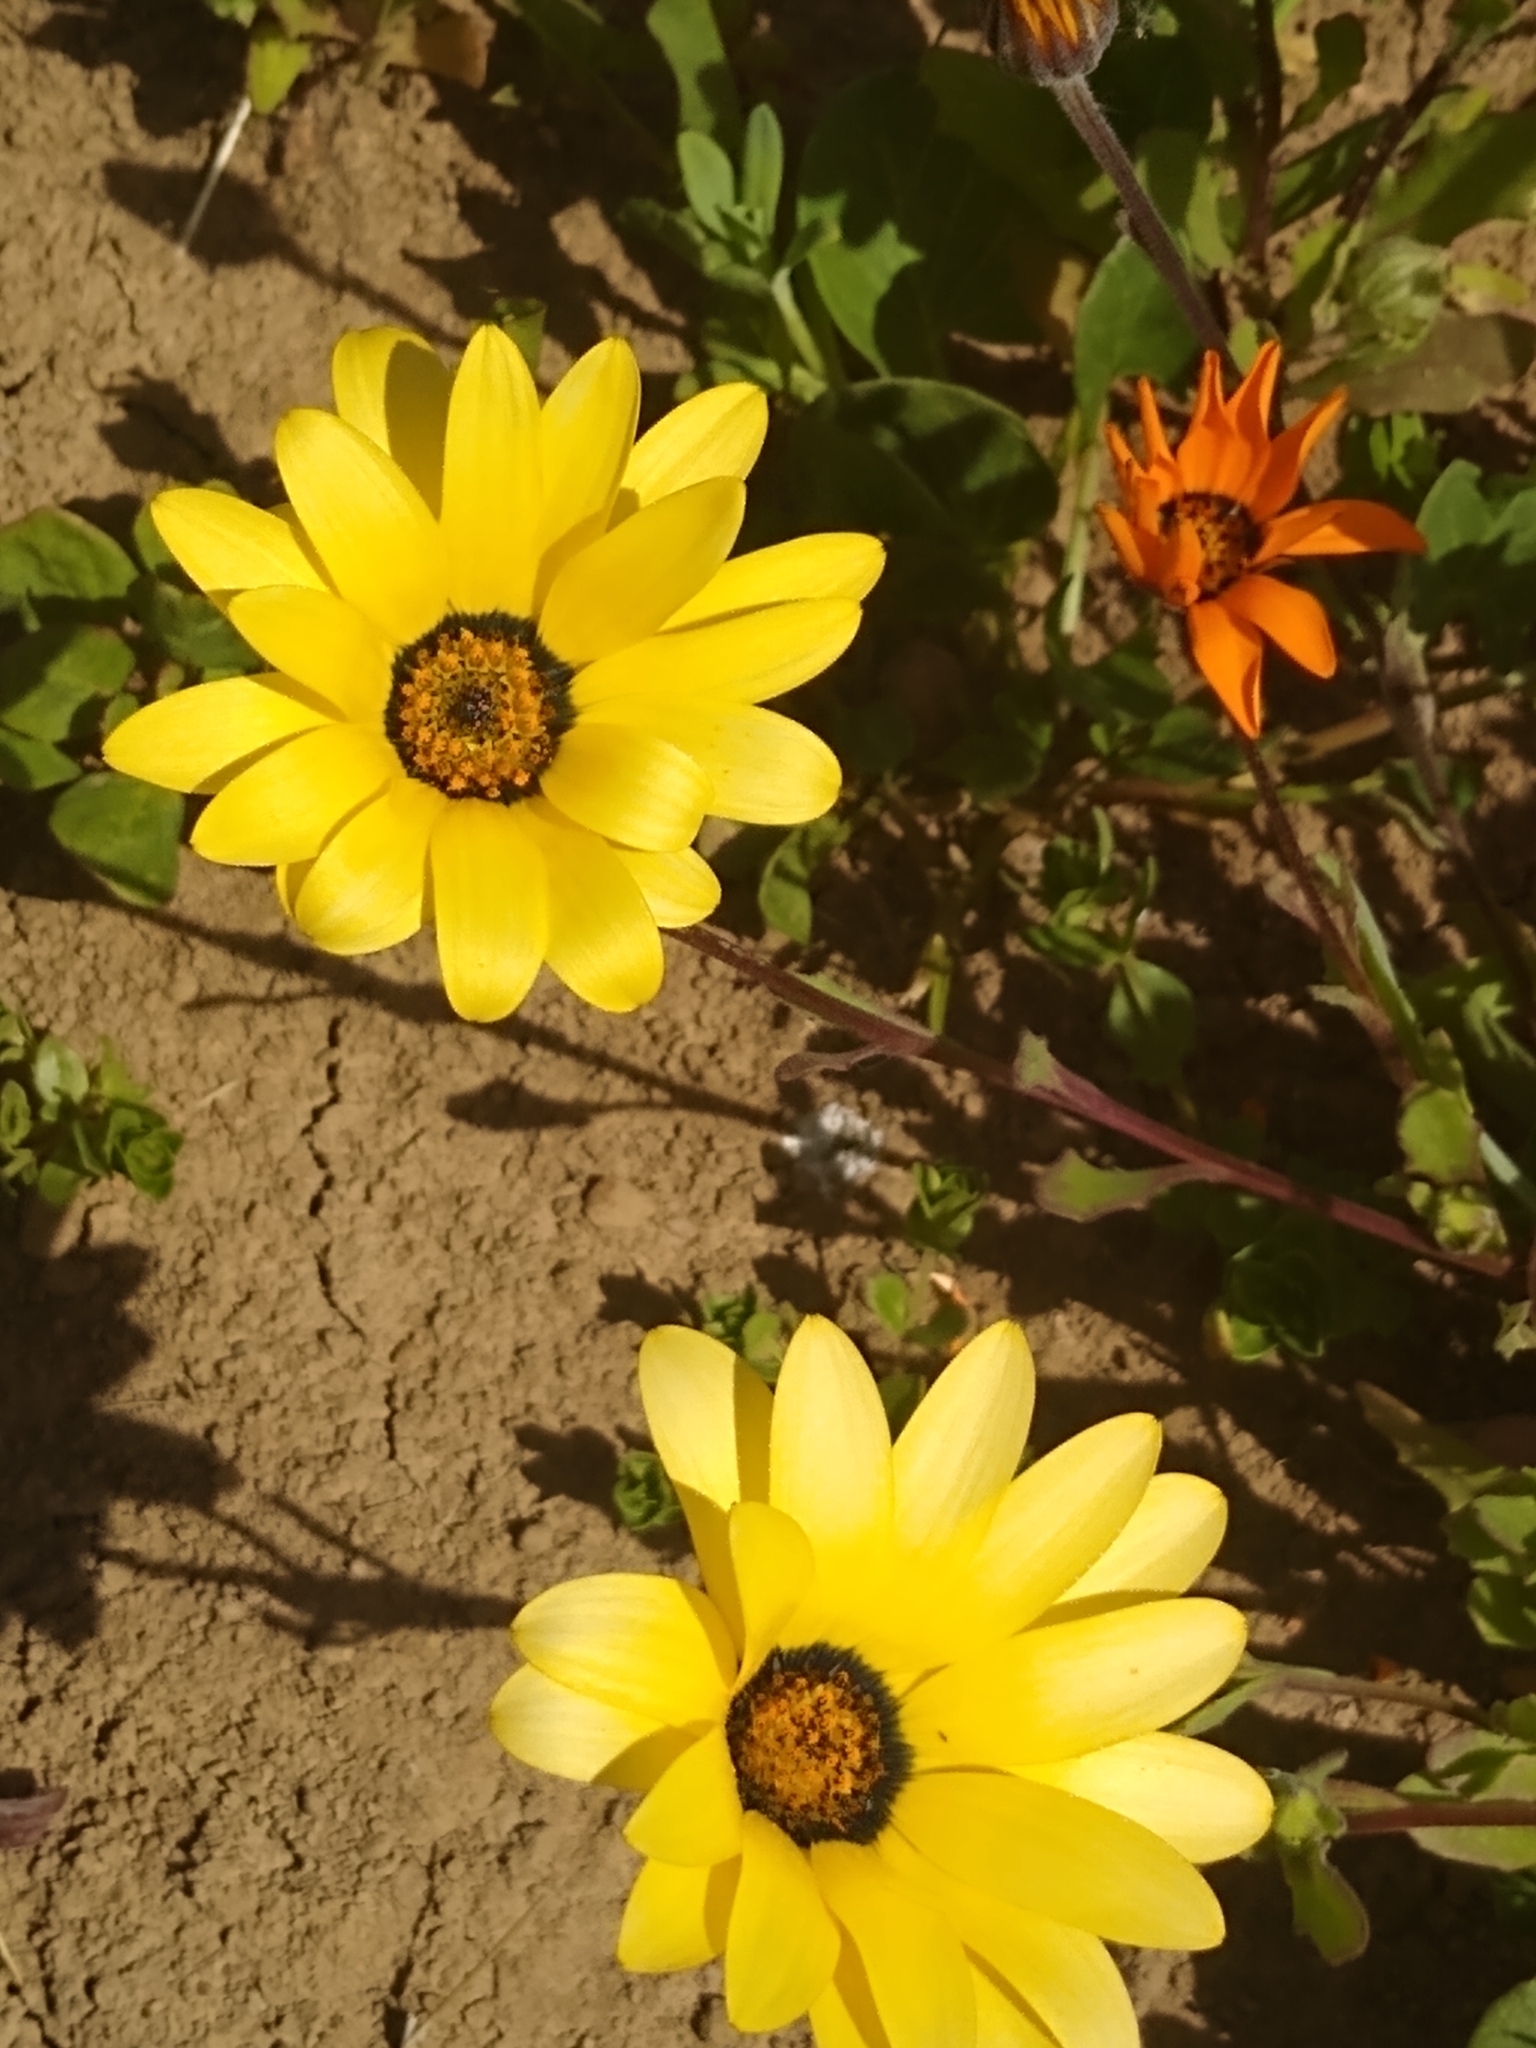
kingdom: Plantae
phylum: Tracheophyta
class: Magnoliopsida
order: Asterales
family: Asteraceae
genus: Dimorphotheca
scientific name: Dimorphotheca sinuata
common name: Glandular cape marigold
